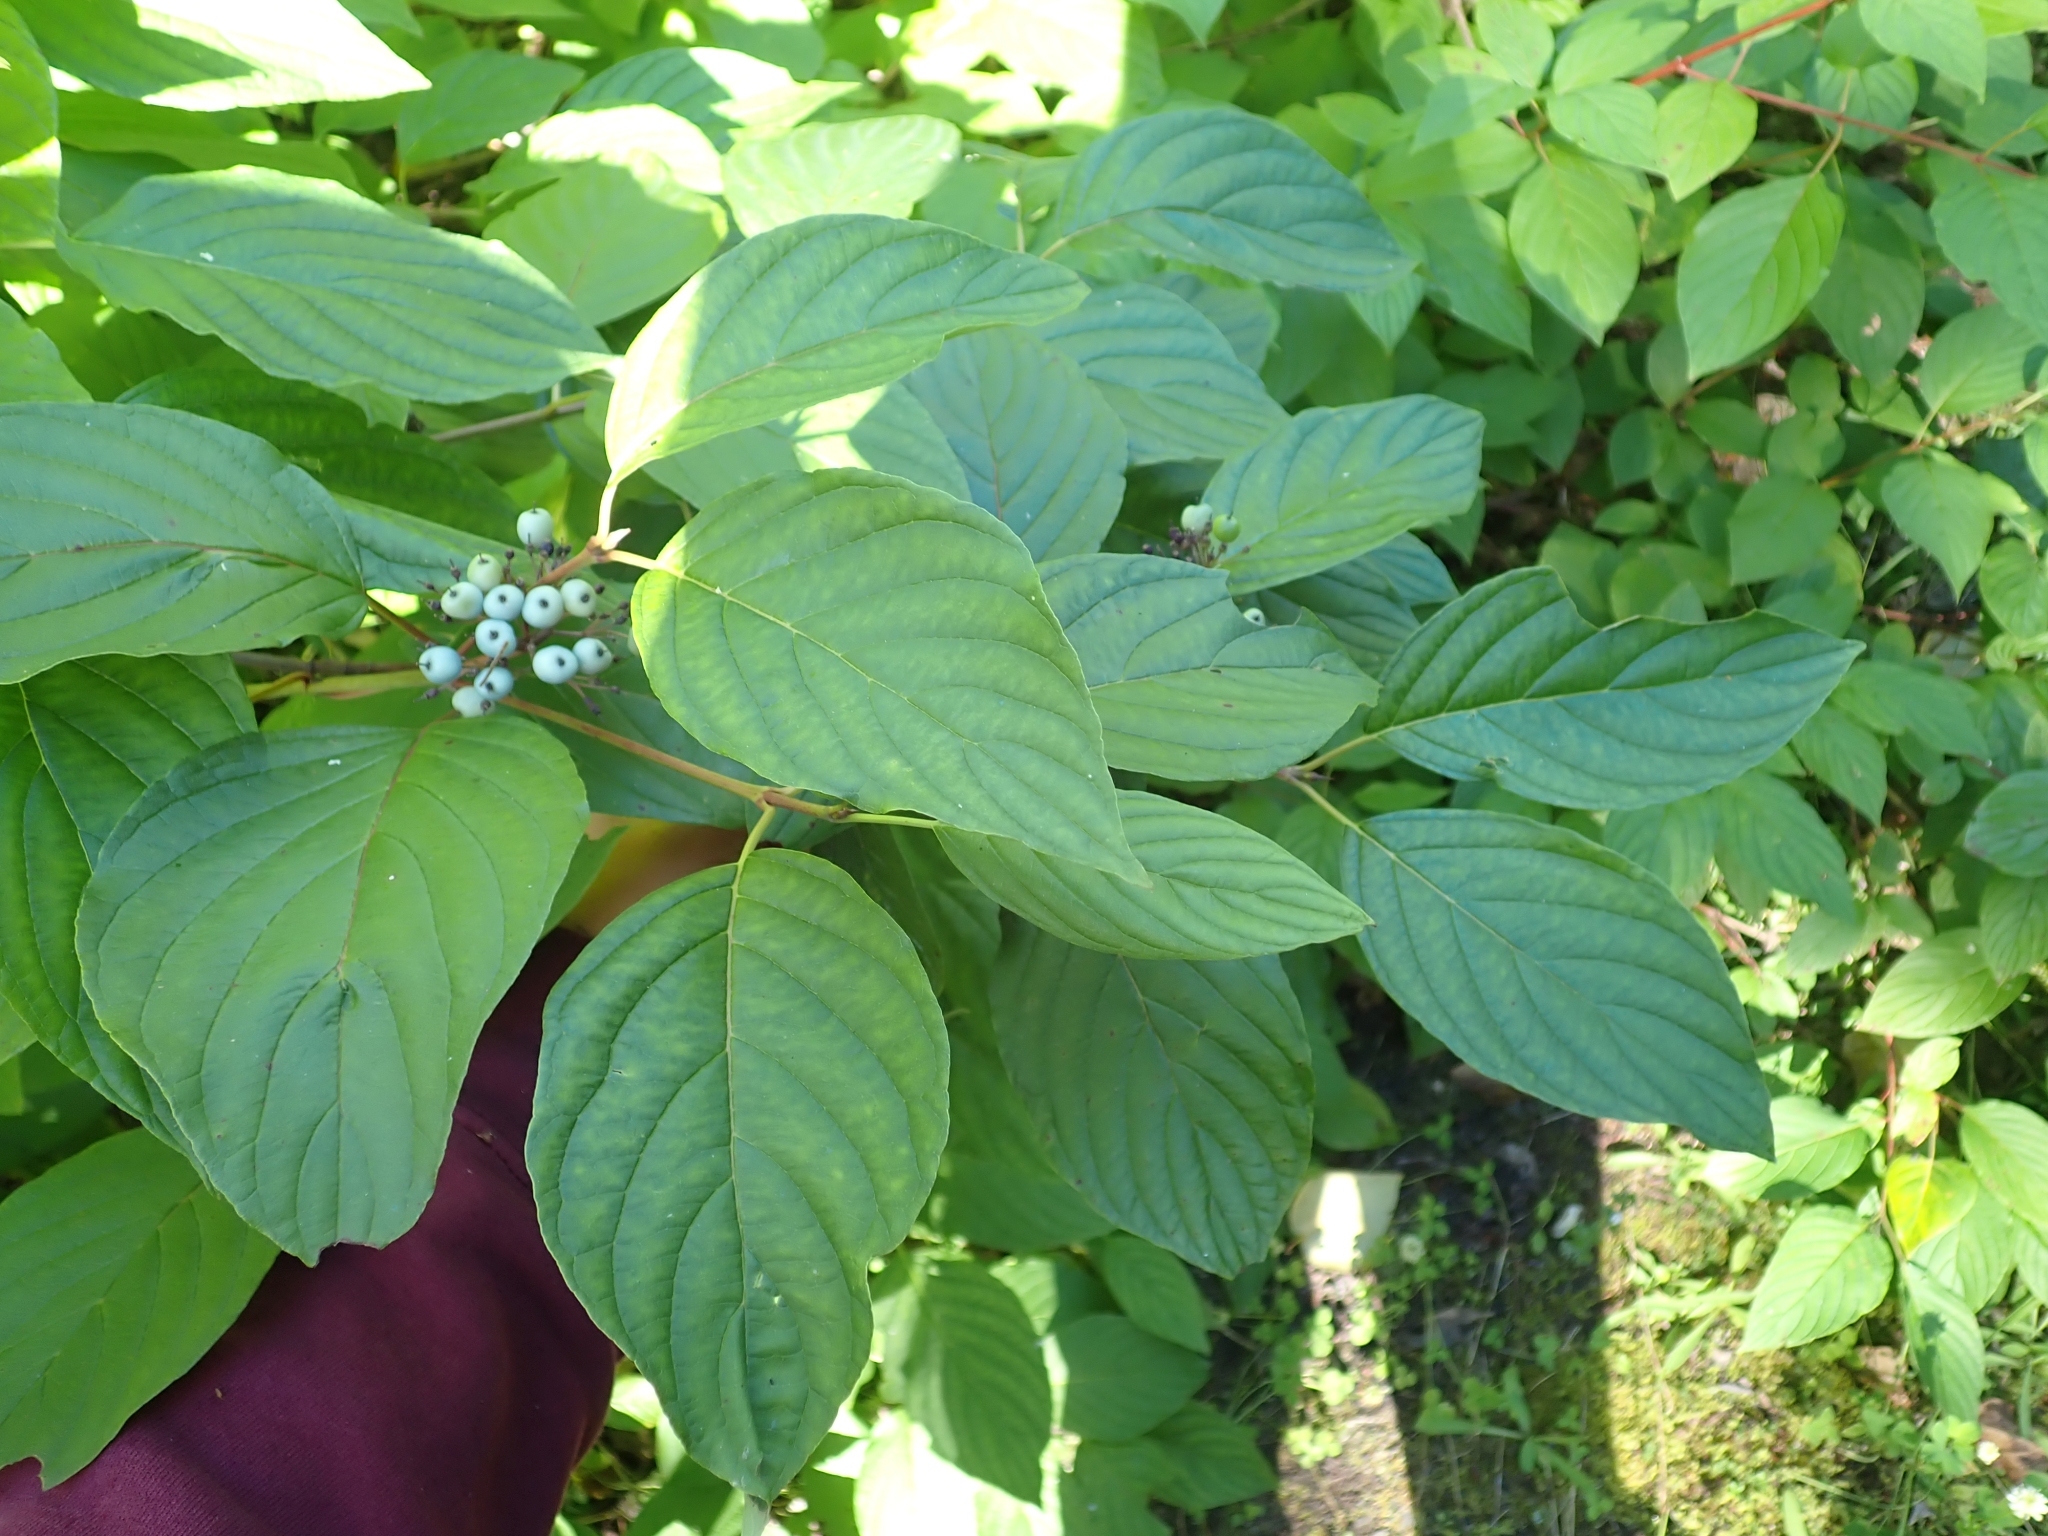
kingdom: Plantae
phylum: Tracheophyta
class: Magnoliopsida
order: Cornales
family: Cornaceae
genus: Cornus
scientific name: Cornus sericea
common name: Red-osier dogwood
